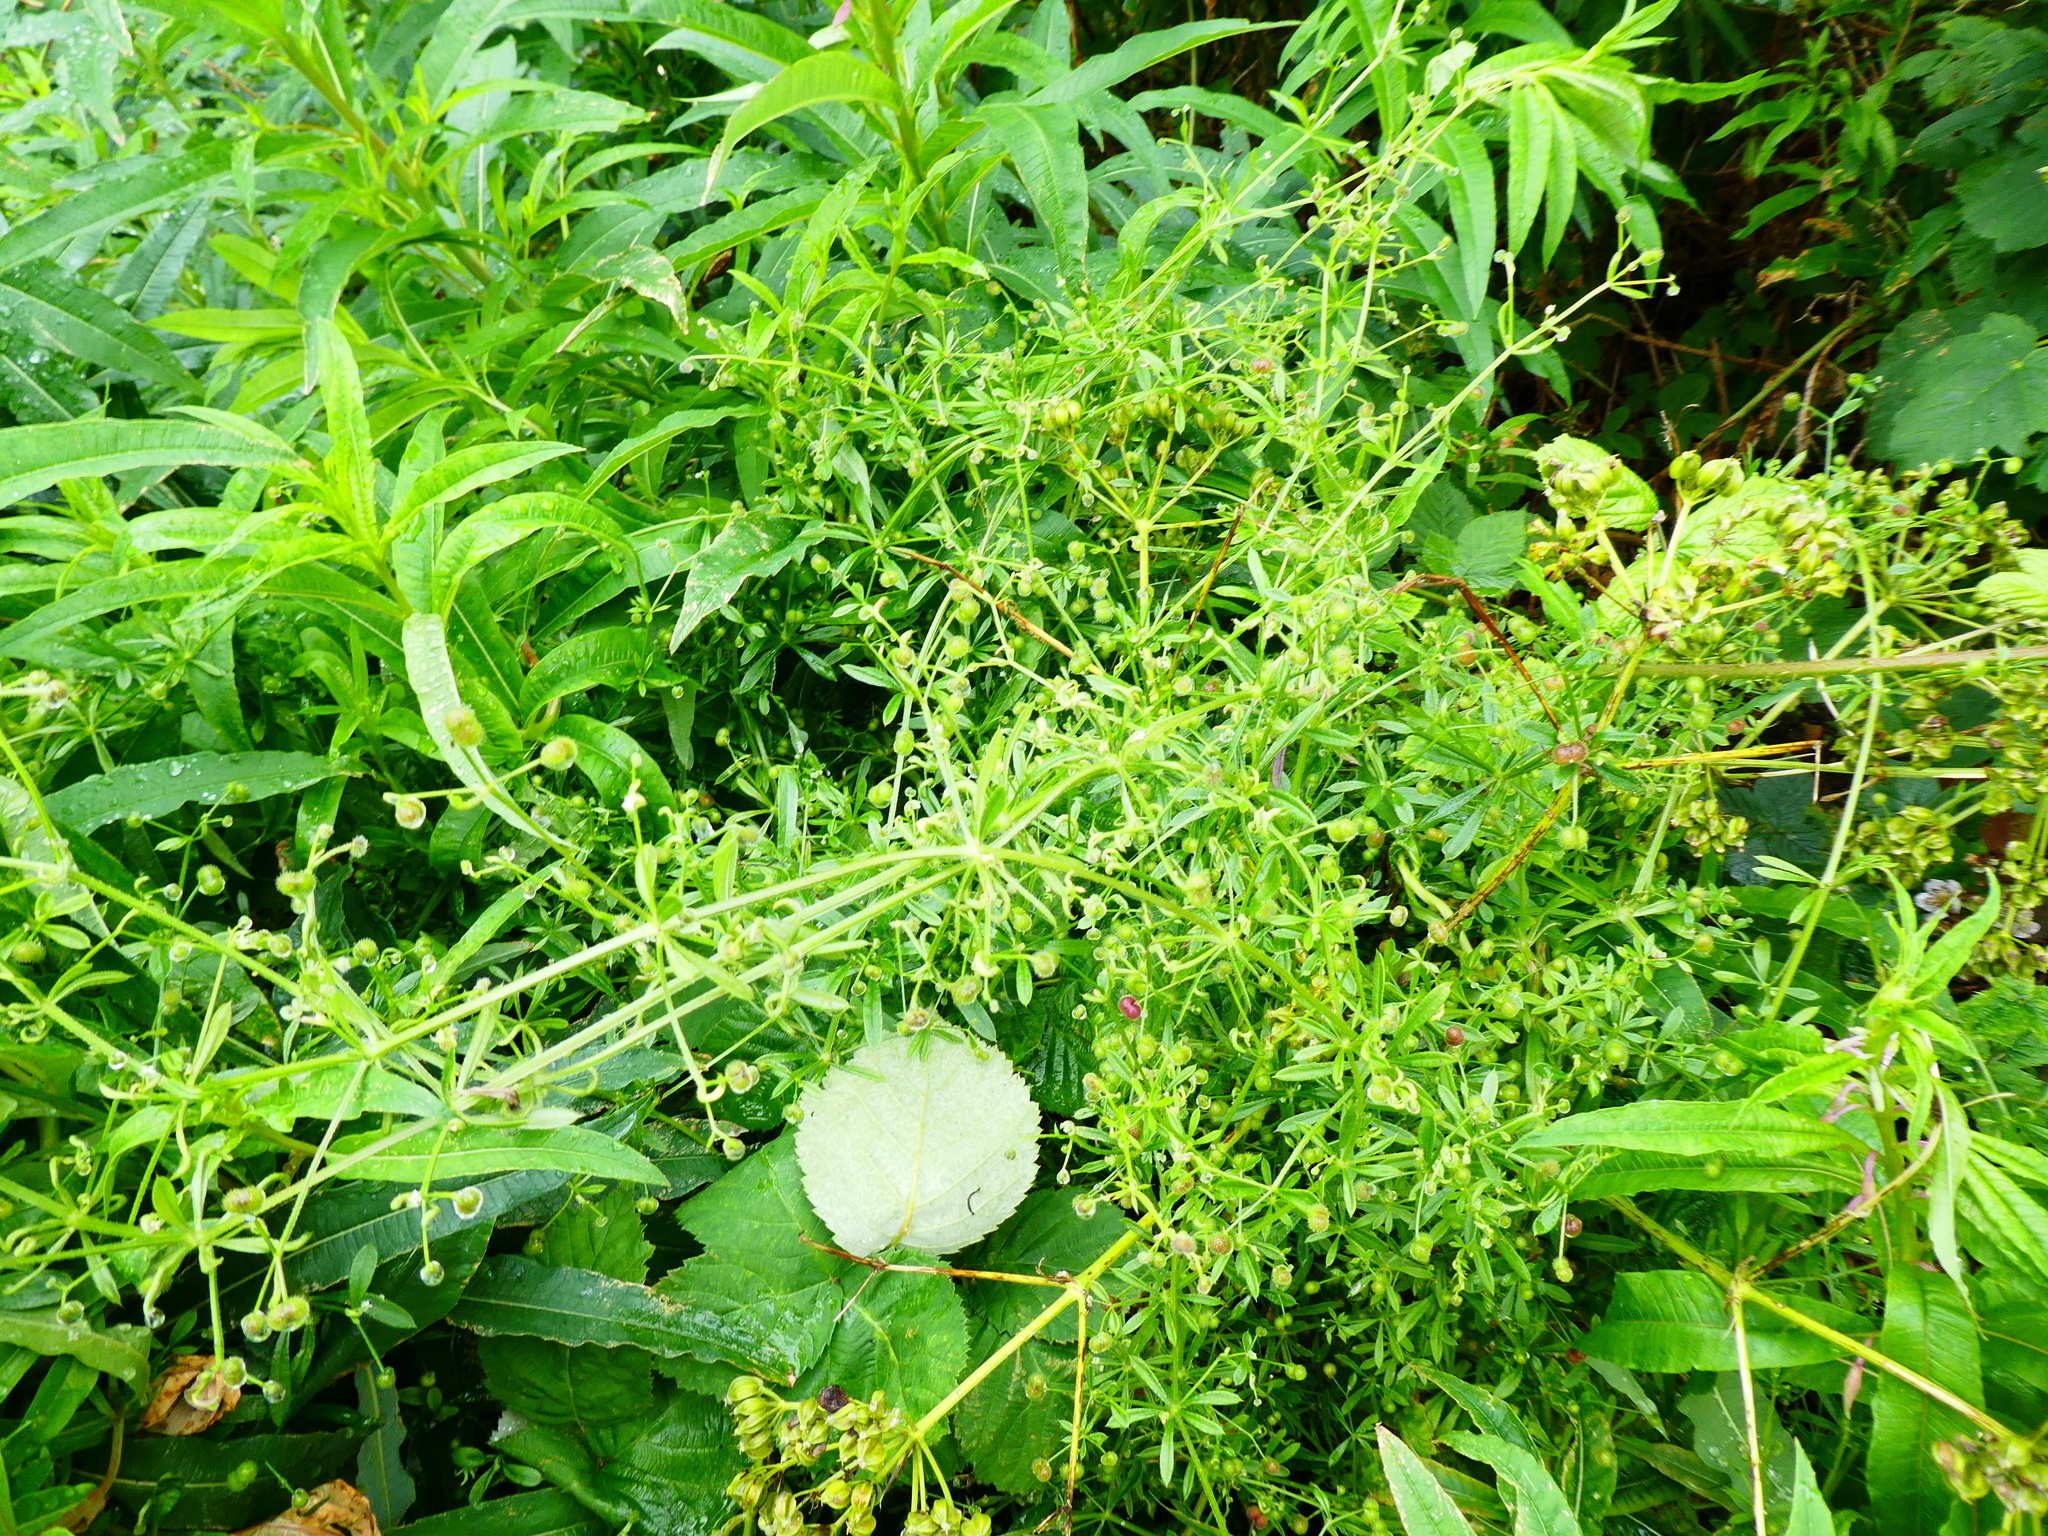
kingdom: Plantae
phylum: Tracheophyta
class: Magnoliopsida
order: Gentianales
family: Rubiaceae
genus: Galium
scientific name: Galium aparine
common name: Cleavers
